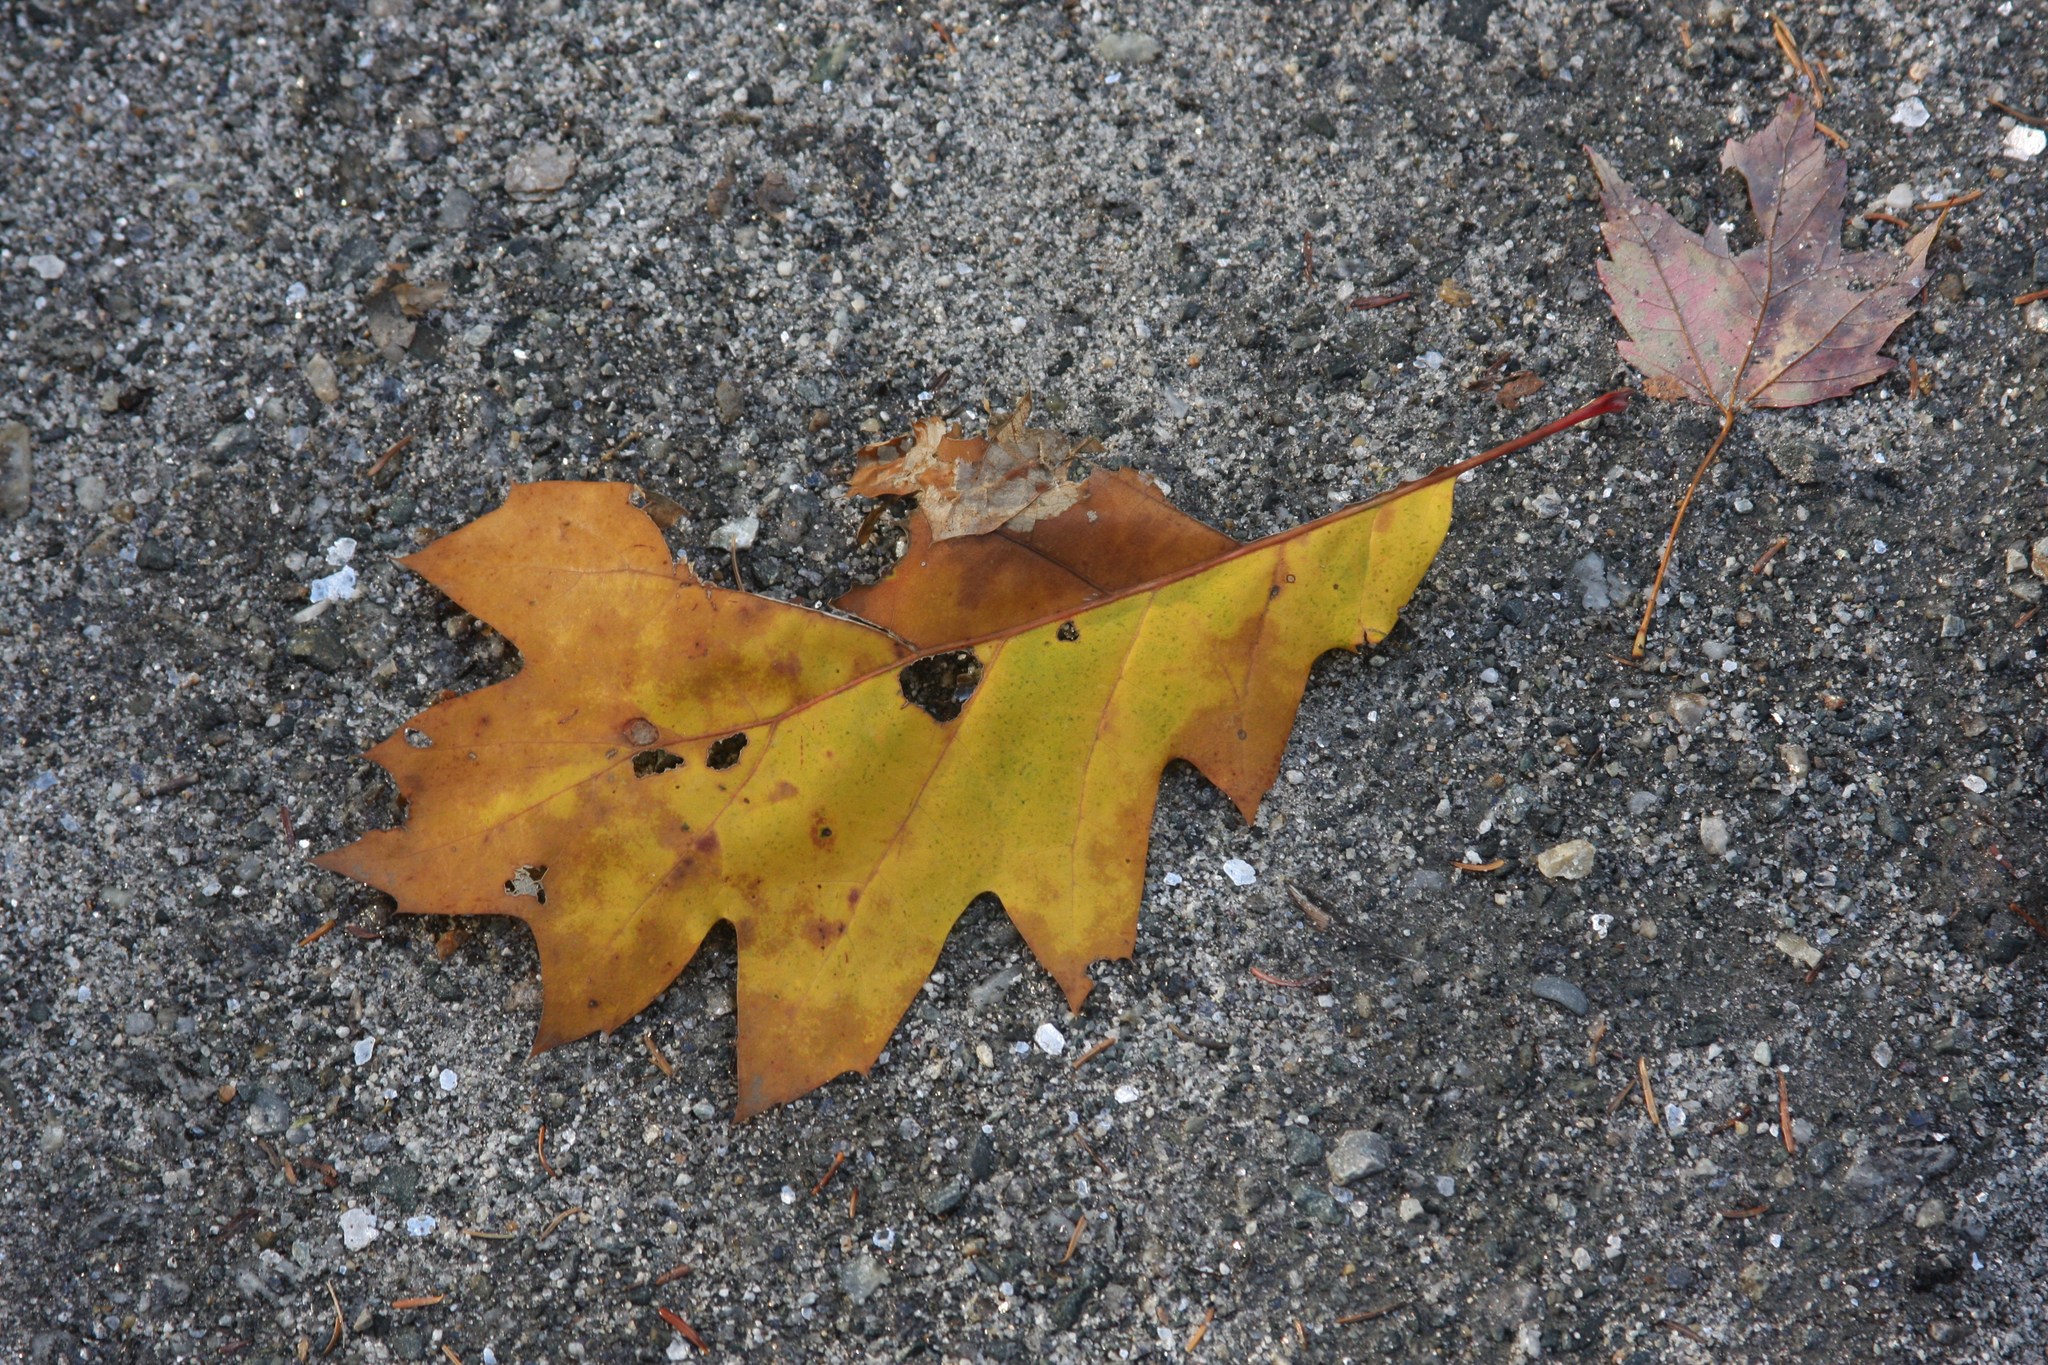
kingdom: Plantae
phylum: Tracheophyta
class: Magnoliopsida
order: Fagales
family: Fagaceae
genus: Quercus
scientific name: Quercus rubra
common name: Red oak
